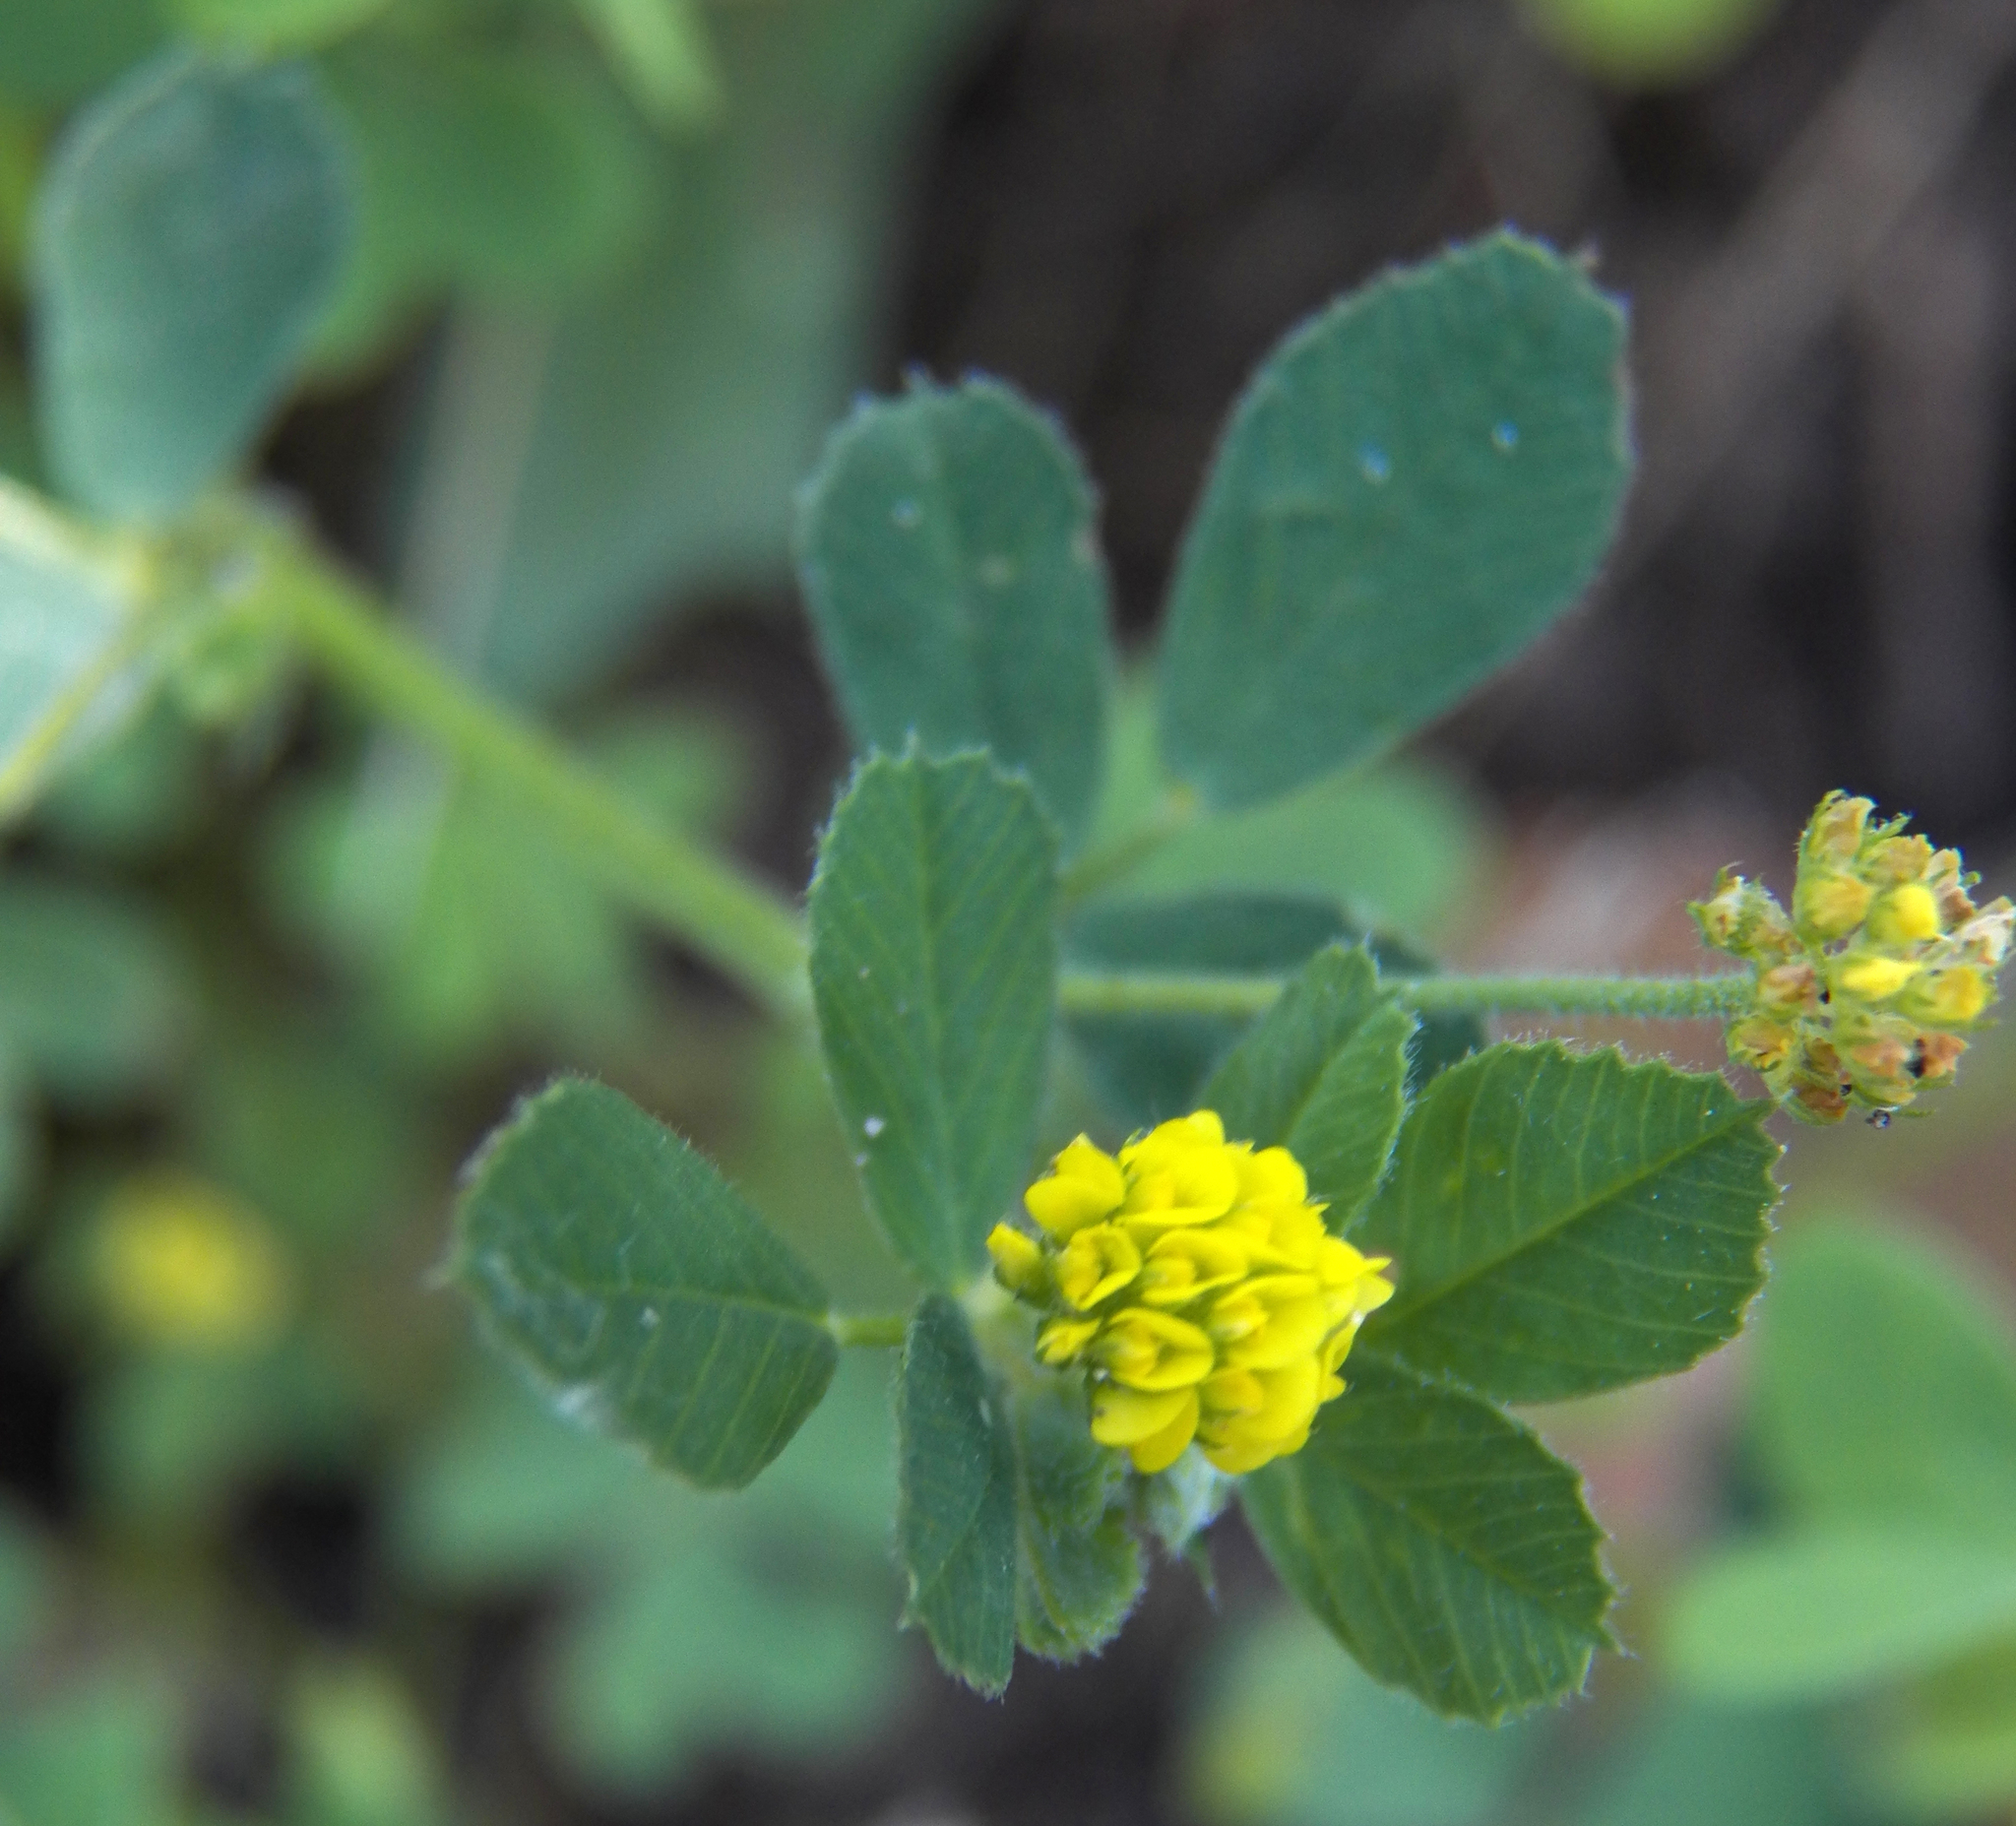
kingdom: Plantae
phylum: Tracheophyta
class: Magnoliopsida
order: Fabales
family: Fabaceae
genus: Medicago
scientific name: Medicago lupulina
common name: Black medick
